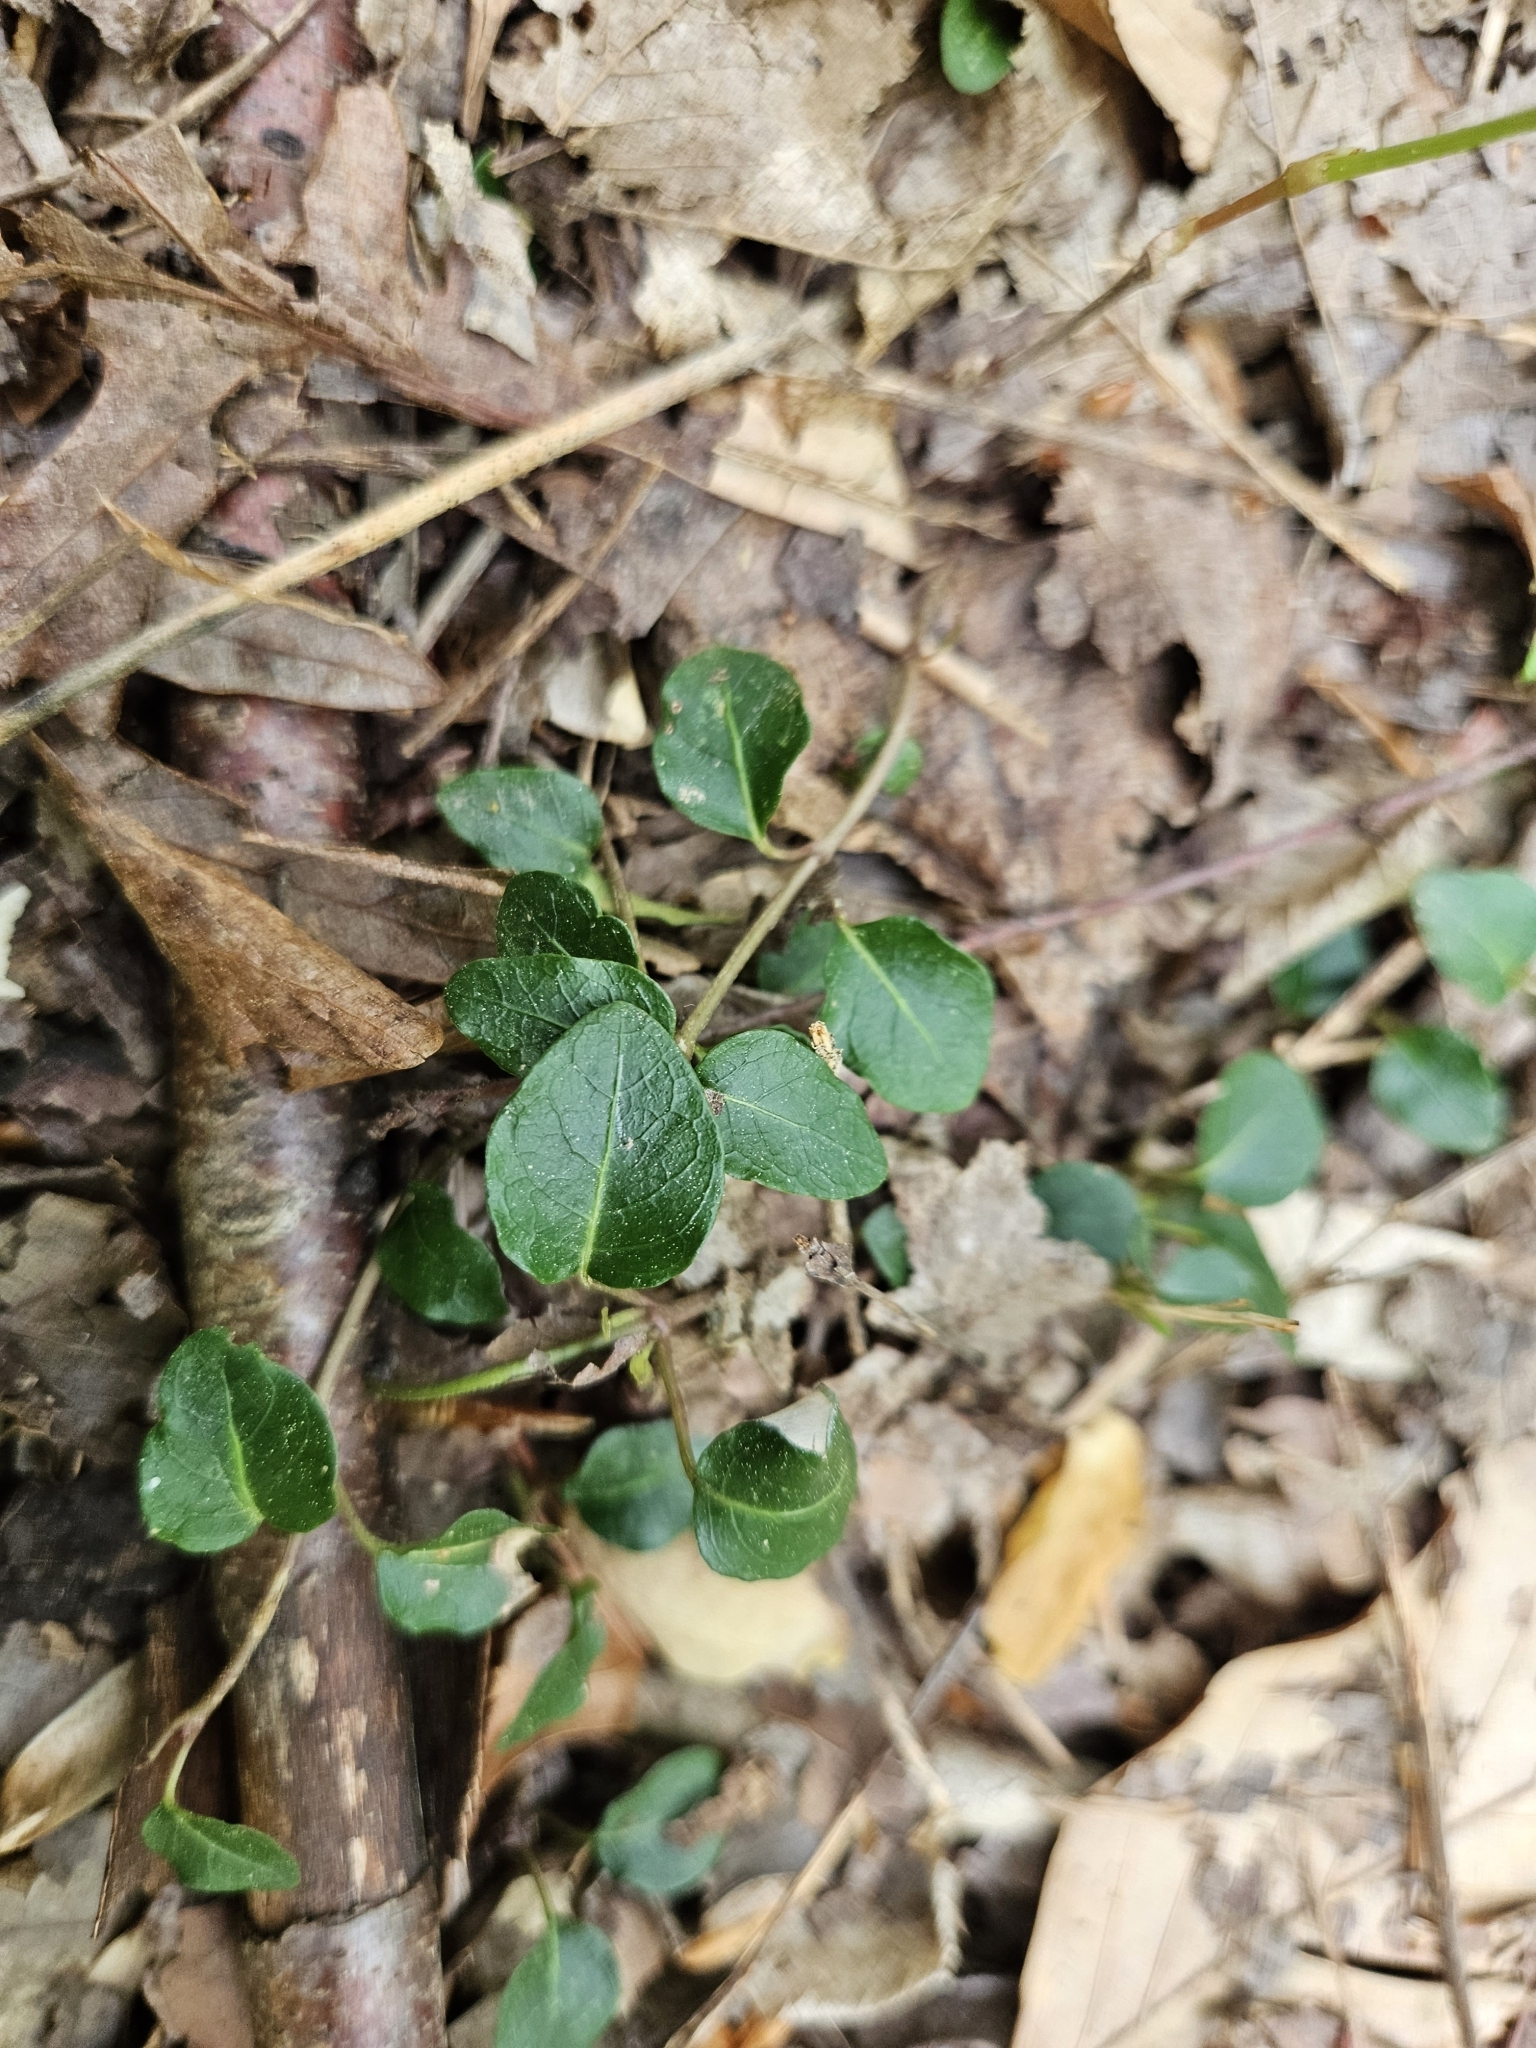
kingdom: Plantae
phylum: Tracheophyta
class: Magnoliopsida
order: Gentianales
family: Rubiaceae
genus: Mitchella
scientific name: Mitchella repens
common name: Partridge-berry
